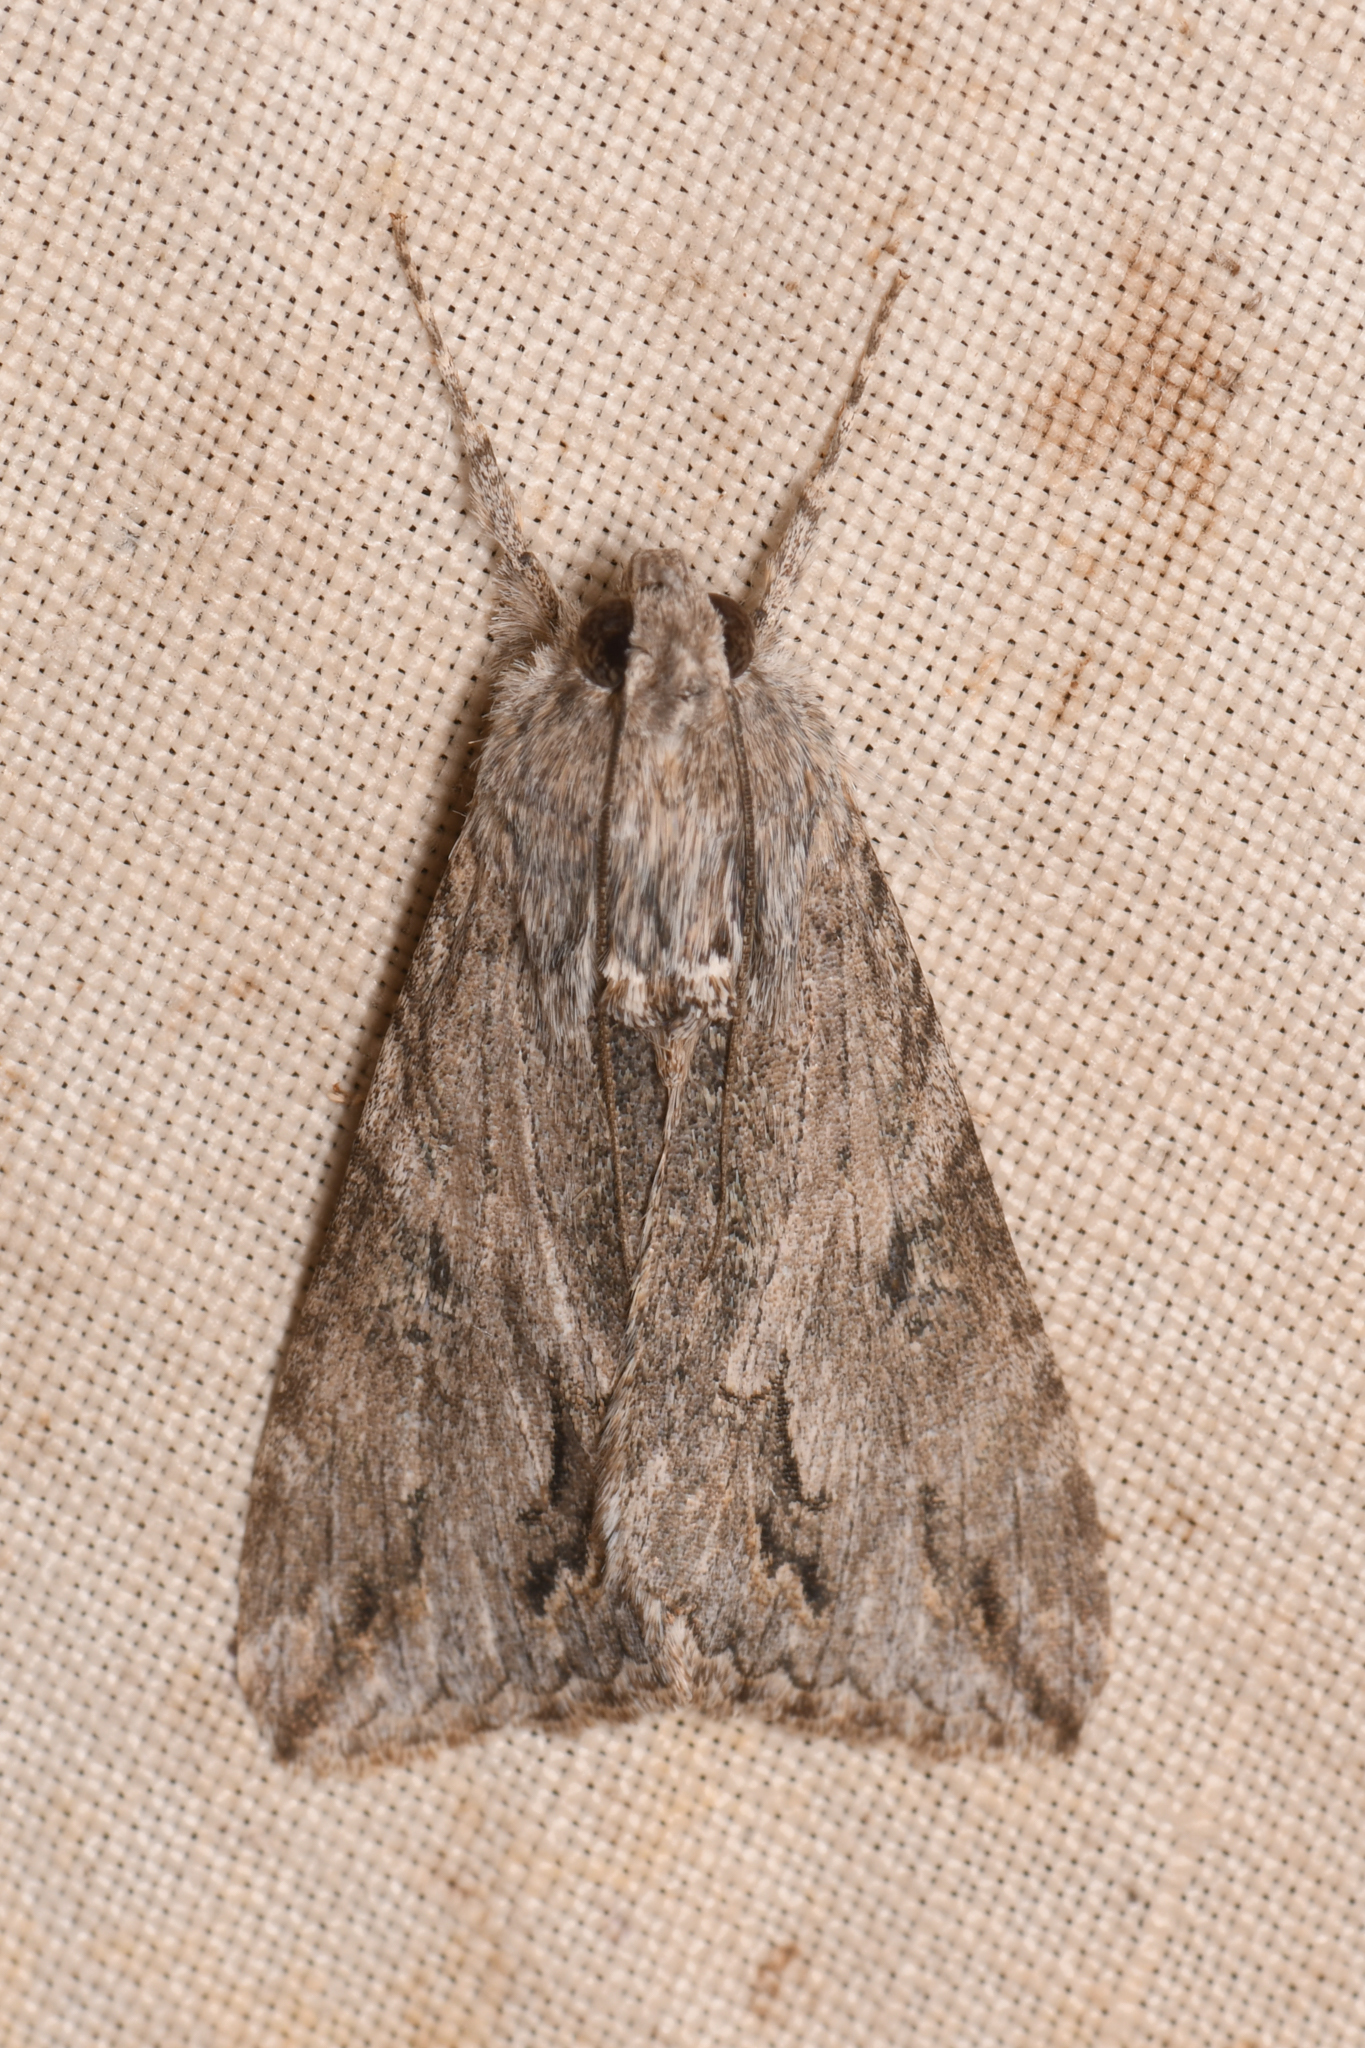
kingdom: Animalia
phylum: Arthropoda
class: Insecta
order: Lepidoptera
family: Erebidae
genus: Melipotis
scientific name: Melipotis jucunda
